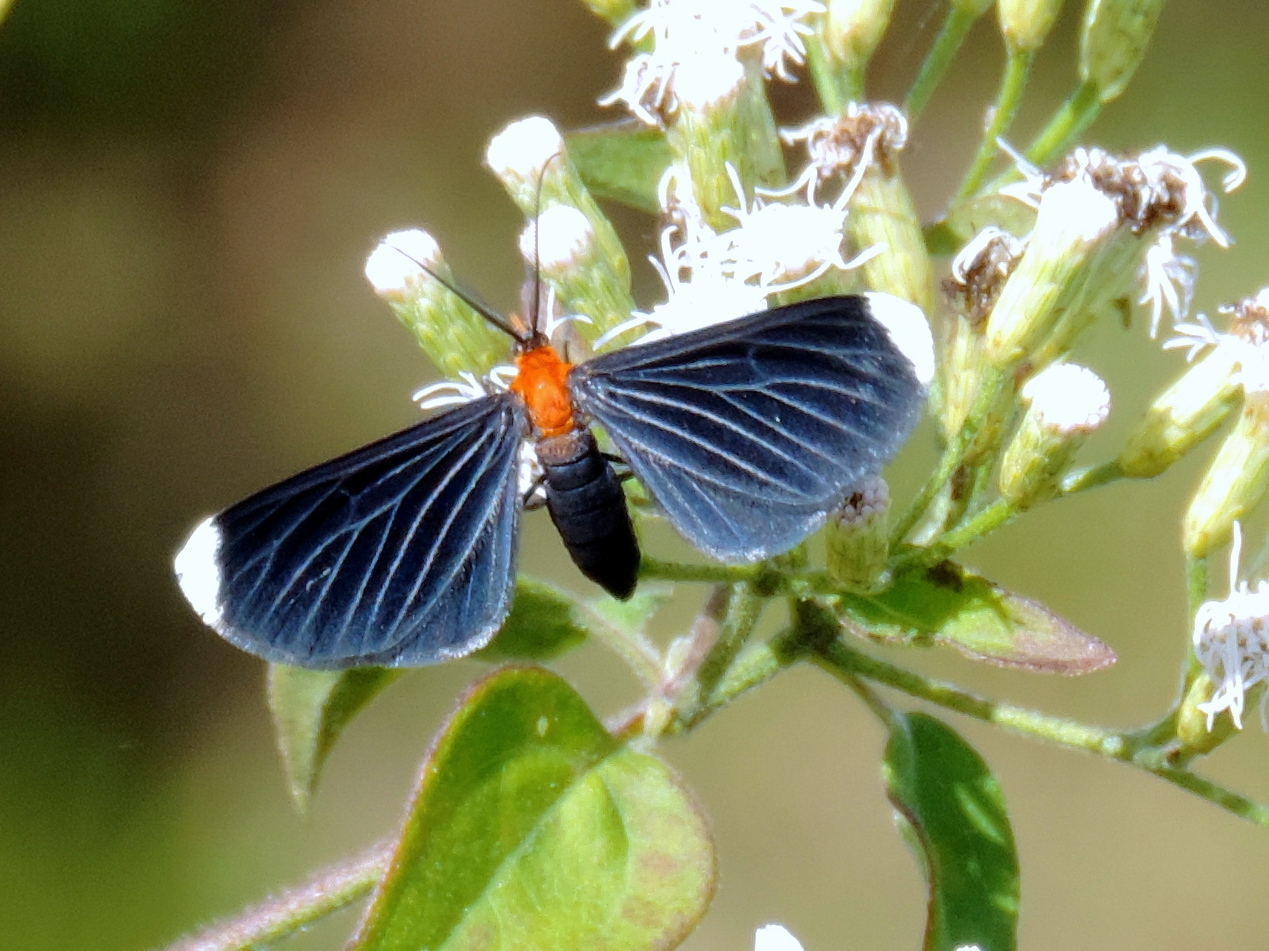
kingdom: Animalia
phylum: Arthropoda
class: Insecta
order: Lepidoptera
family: Geometridae
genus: Melanchroia
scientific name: Melanchroia chephise
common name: White-tipped black
